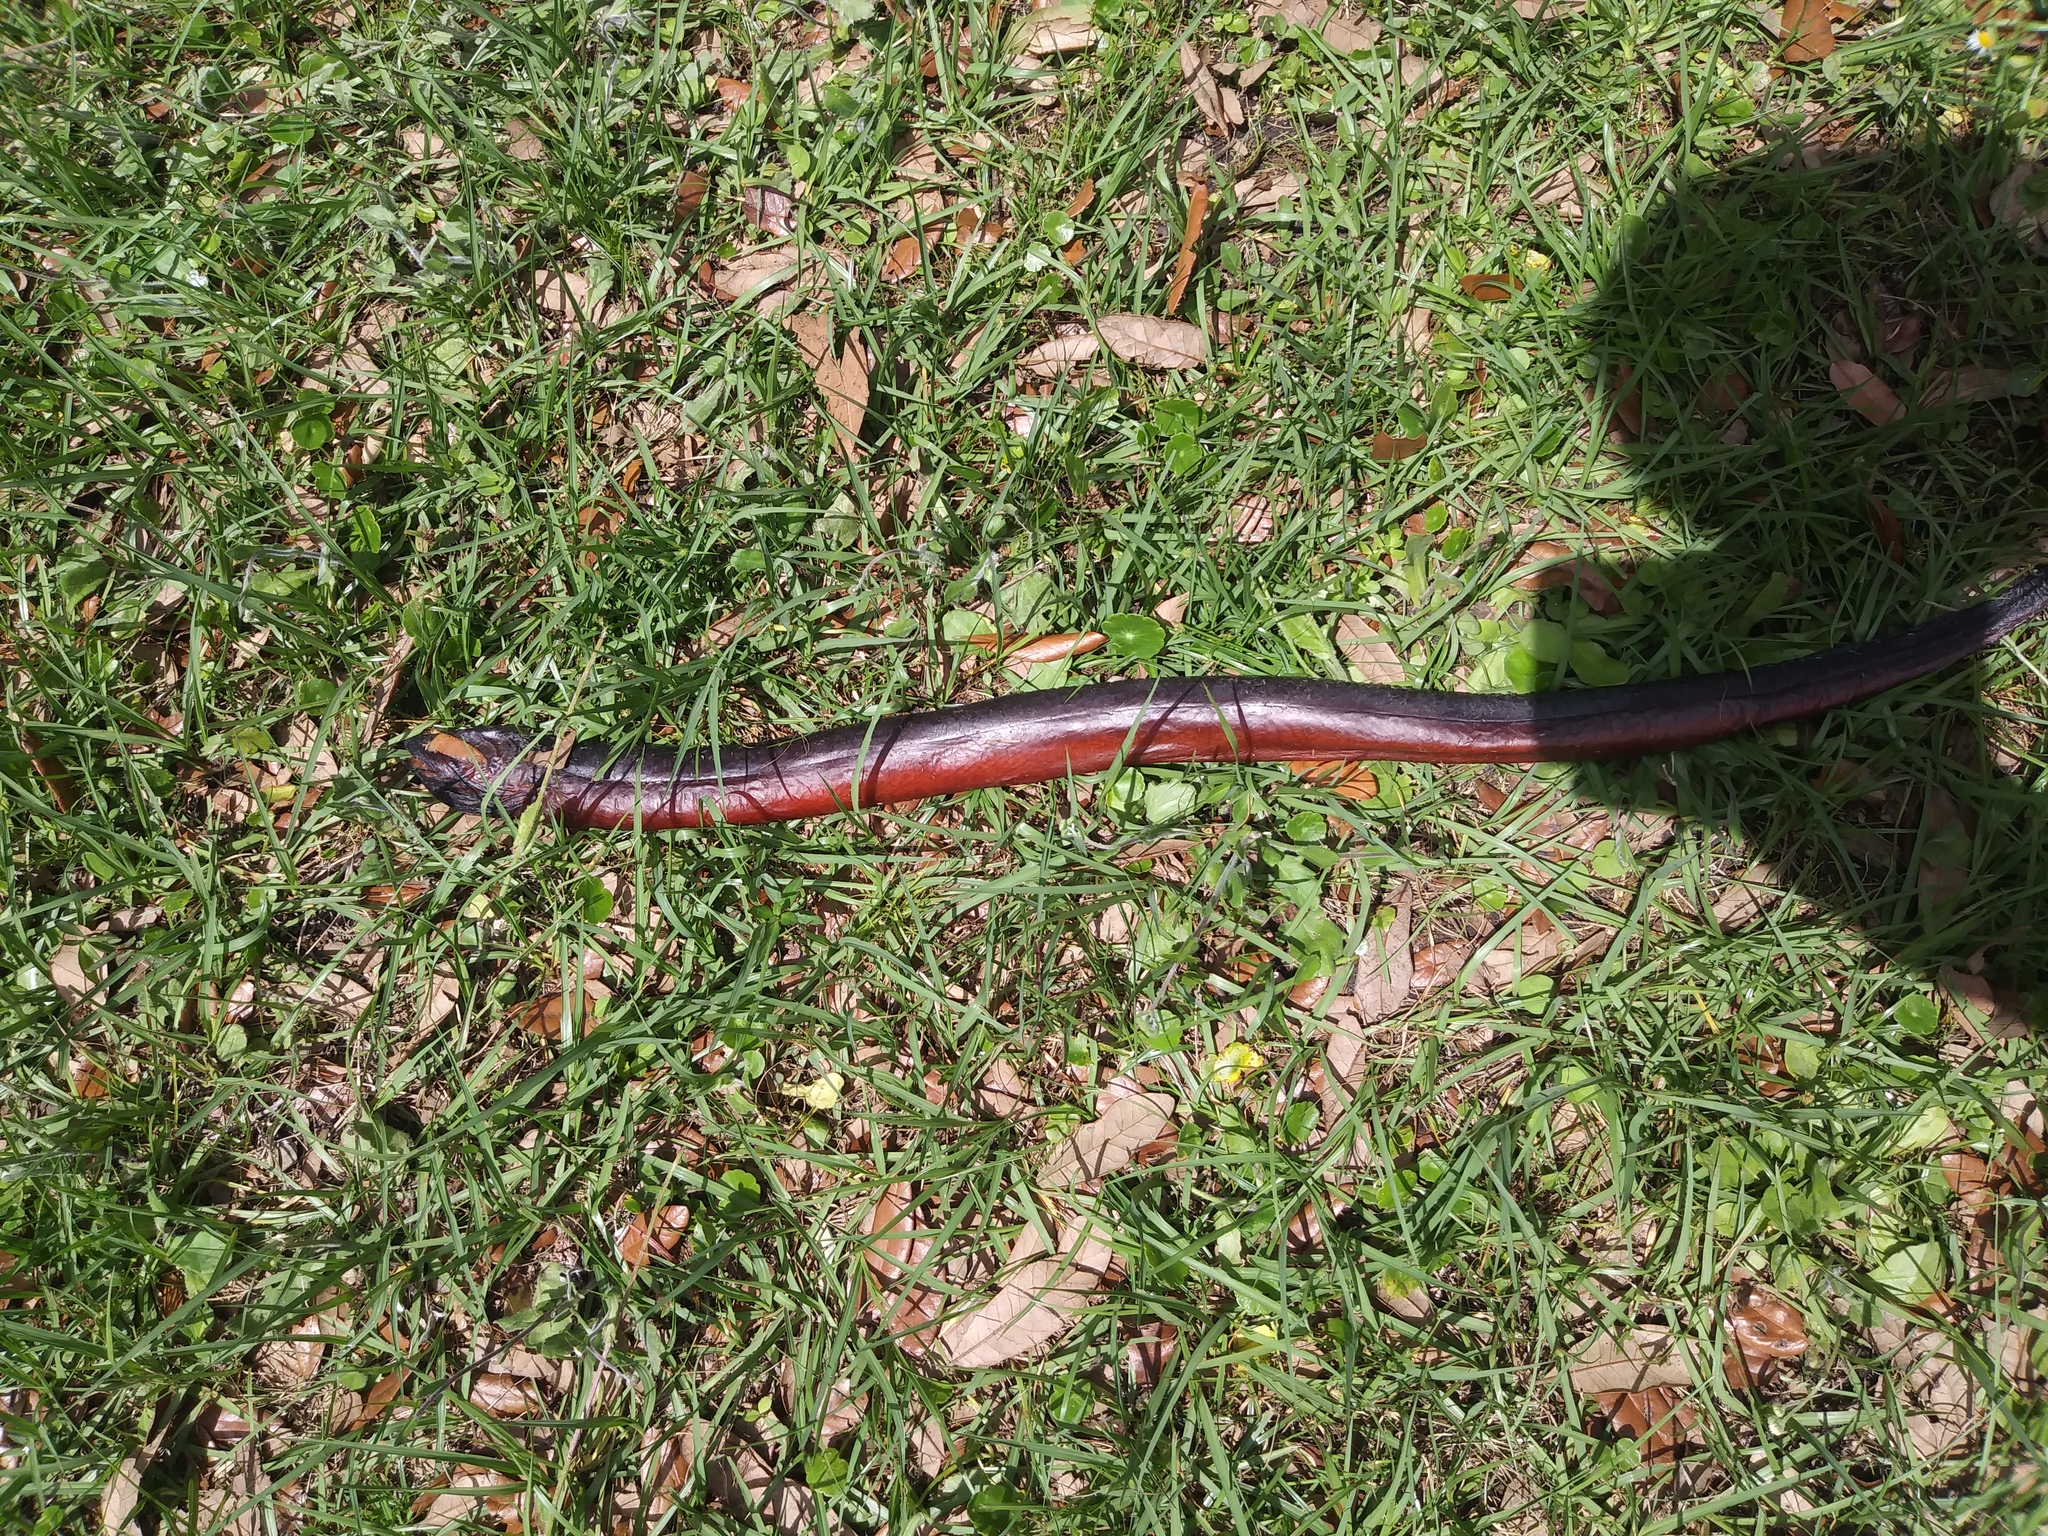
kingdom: Animalia
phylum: Chordata
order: Synbranchiformes
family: Synbranchidae
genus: Monopterus
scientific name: Monopterus
